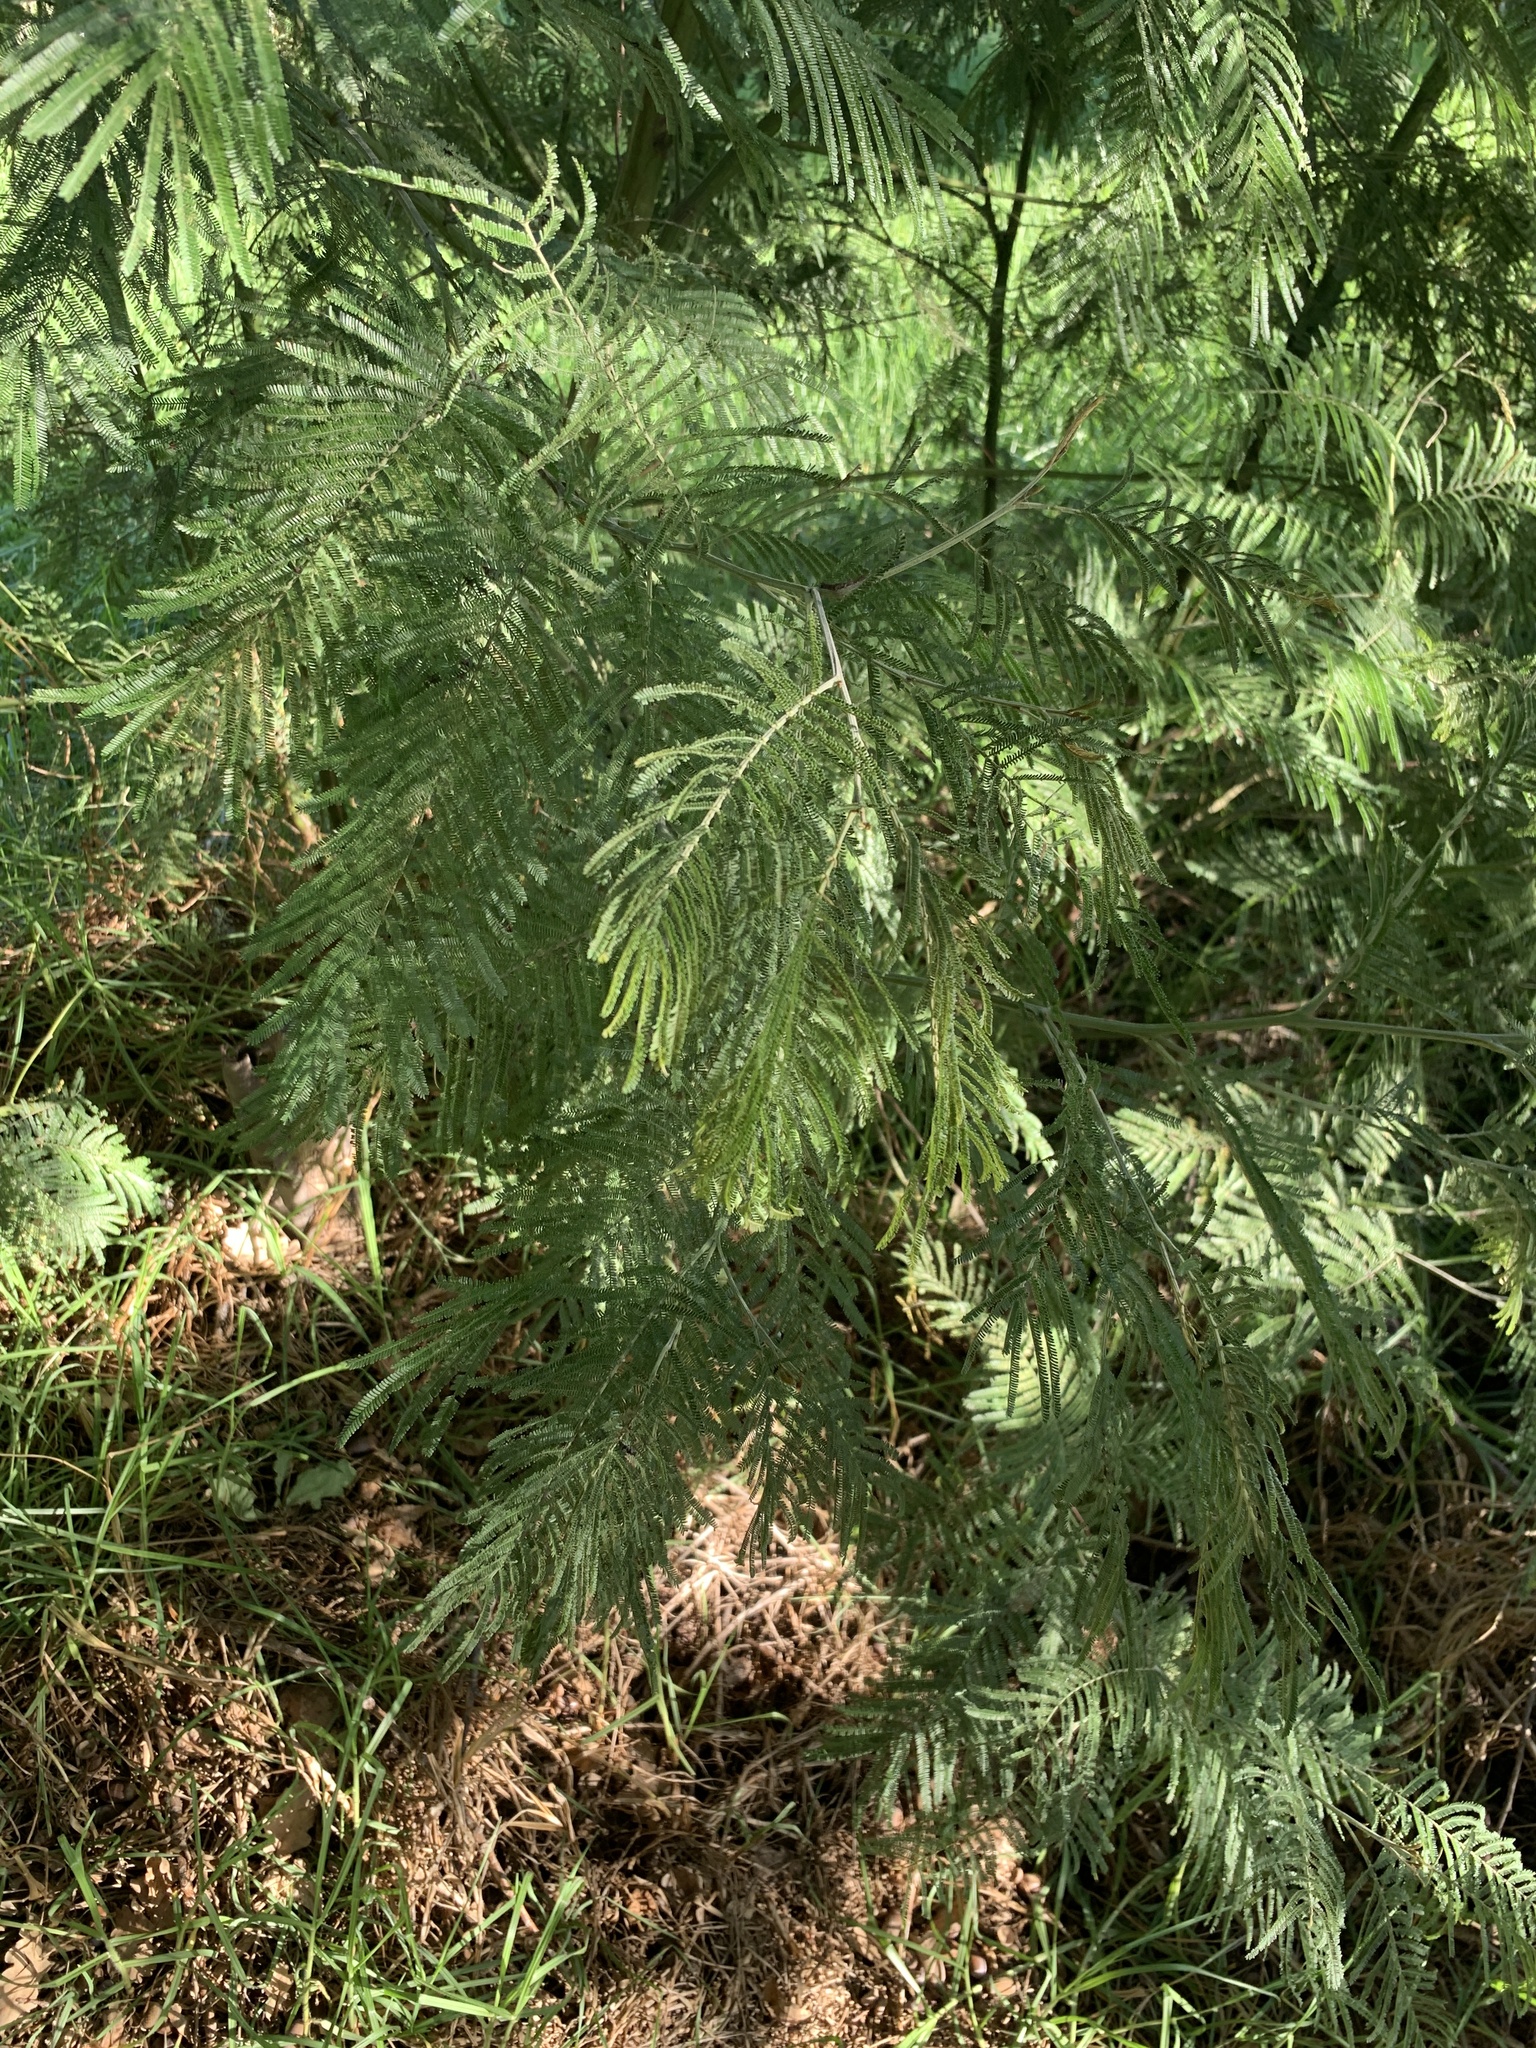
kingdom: Plantae
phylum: Tracheophyta
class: Magnoliopsida
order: Fabales
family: Fabaceae
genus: Acacia
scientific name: Acacia mearnsii
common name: Black wattle
